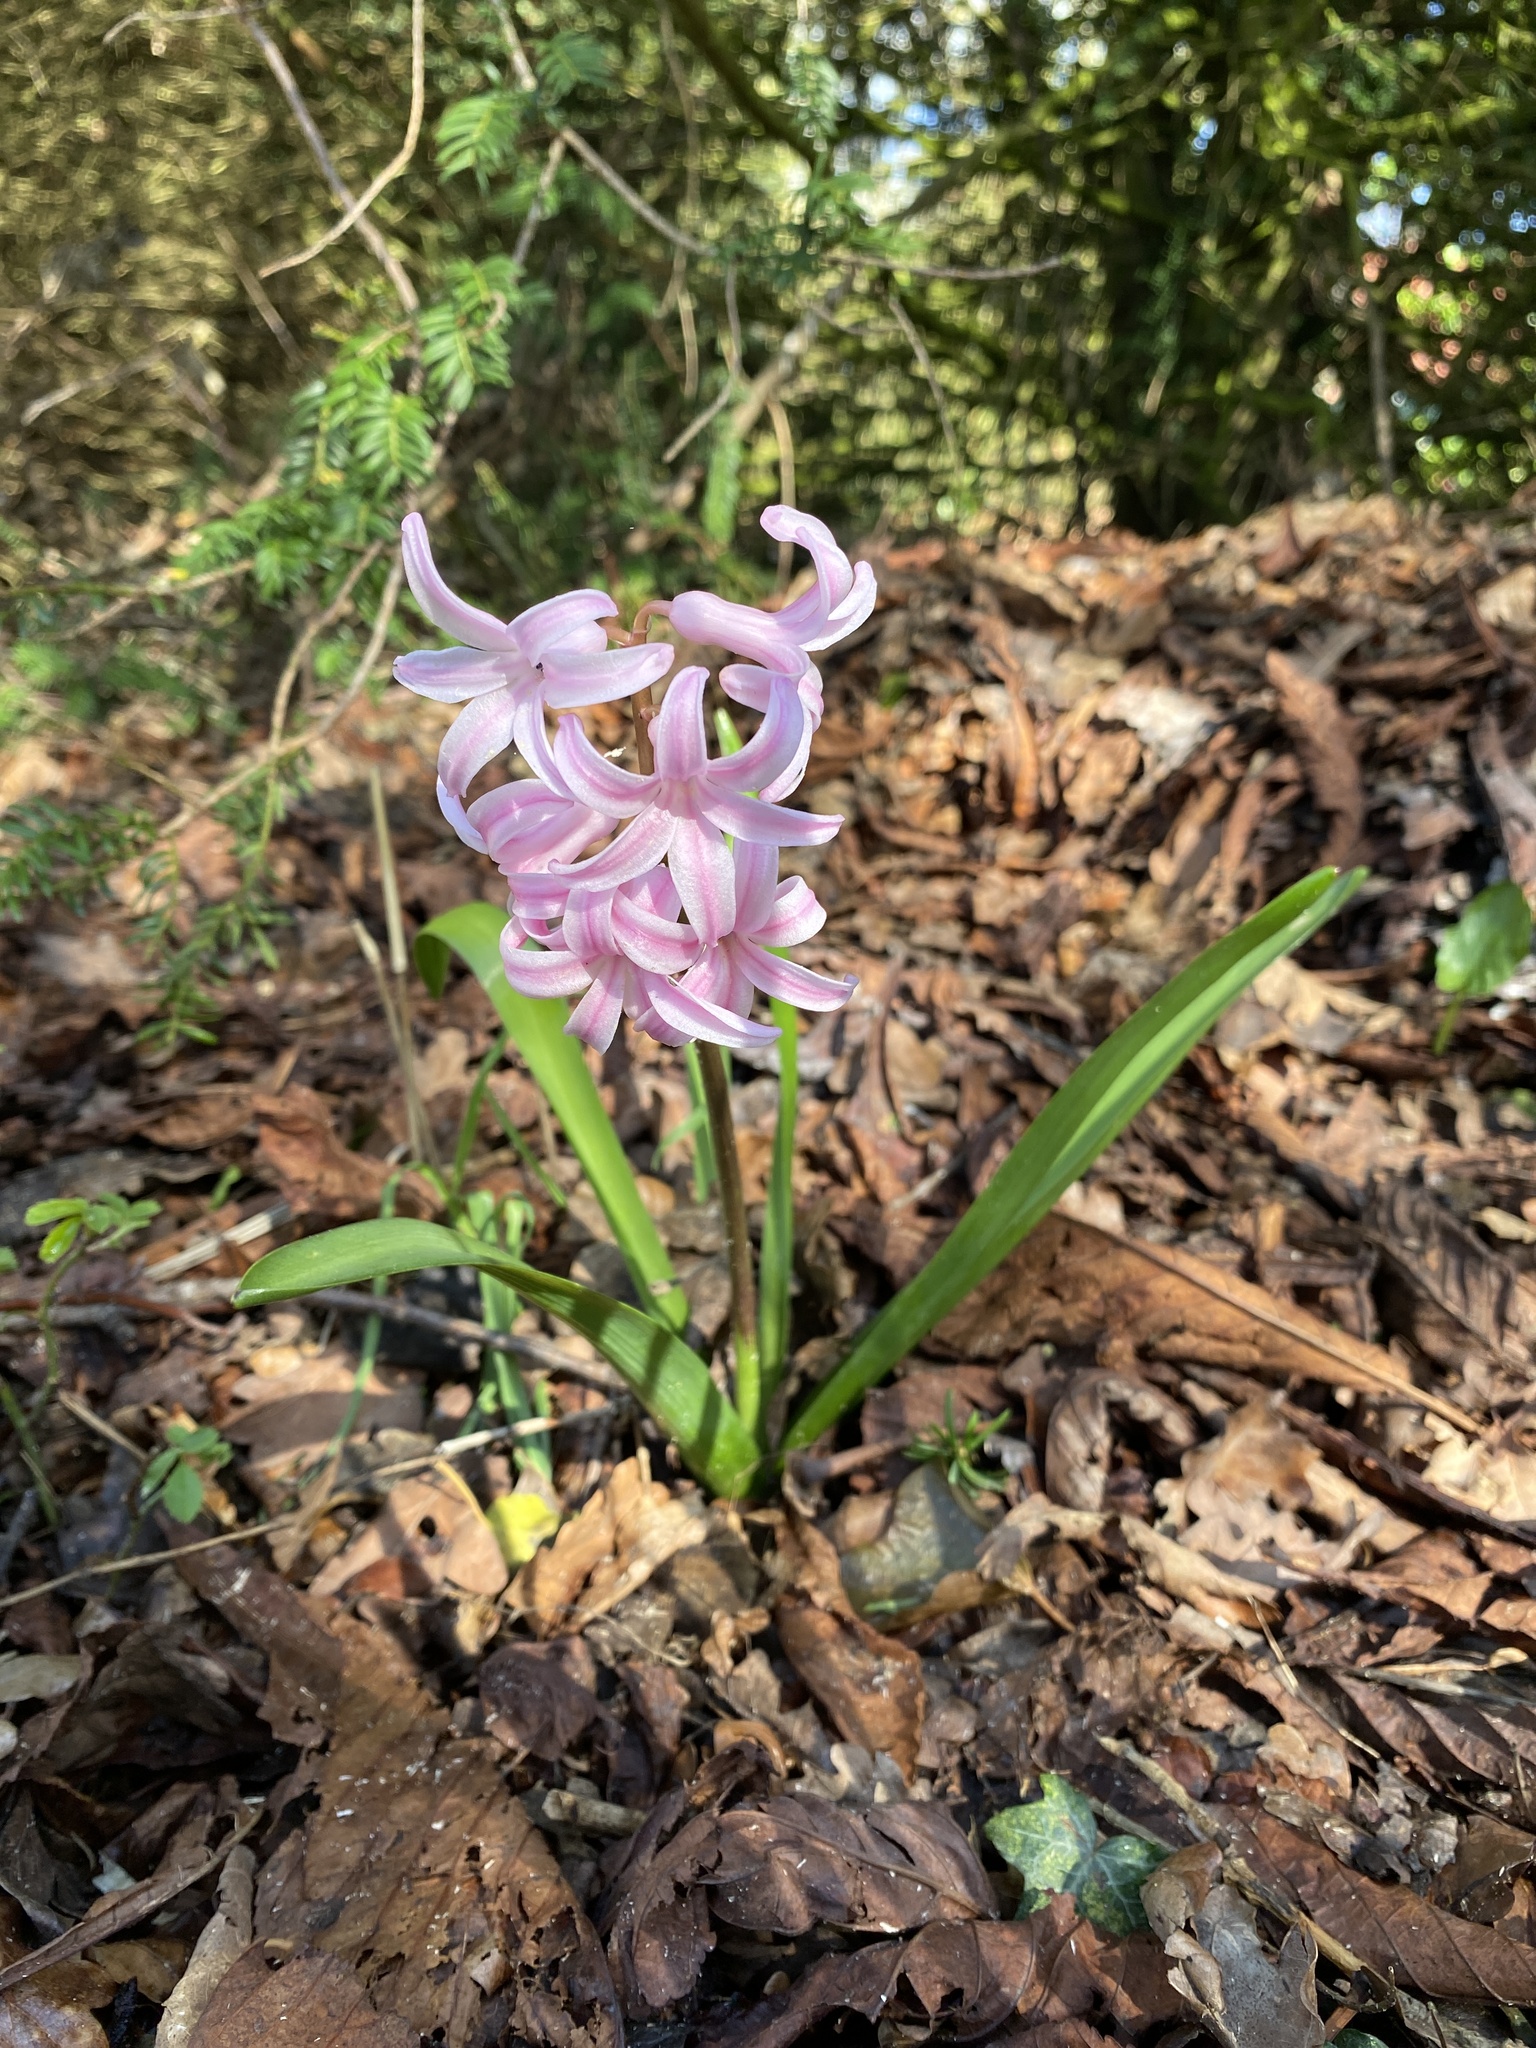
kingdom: Plantae
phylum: Tracheophyta
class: Liliopsida
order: Asparagales
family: Asparagaceae
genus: Hyacinthus
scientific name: Hyacinthus orientalis
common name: Hyacinth
